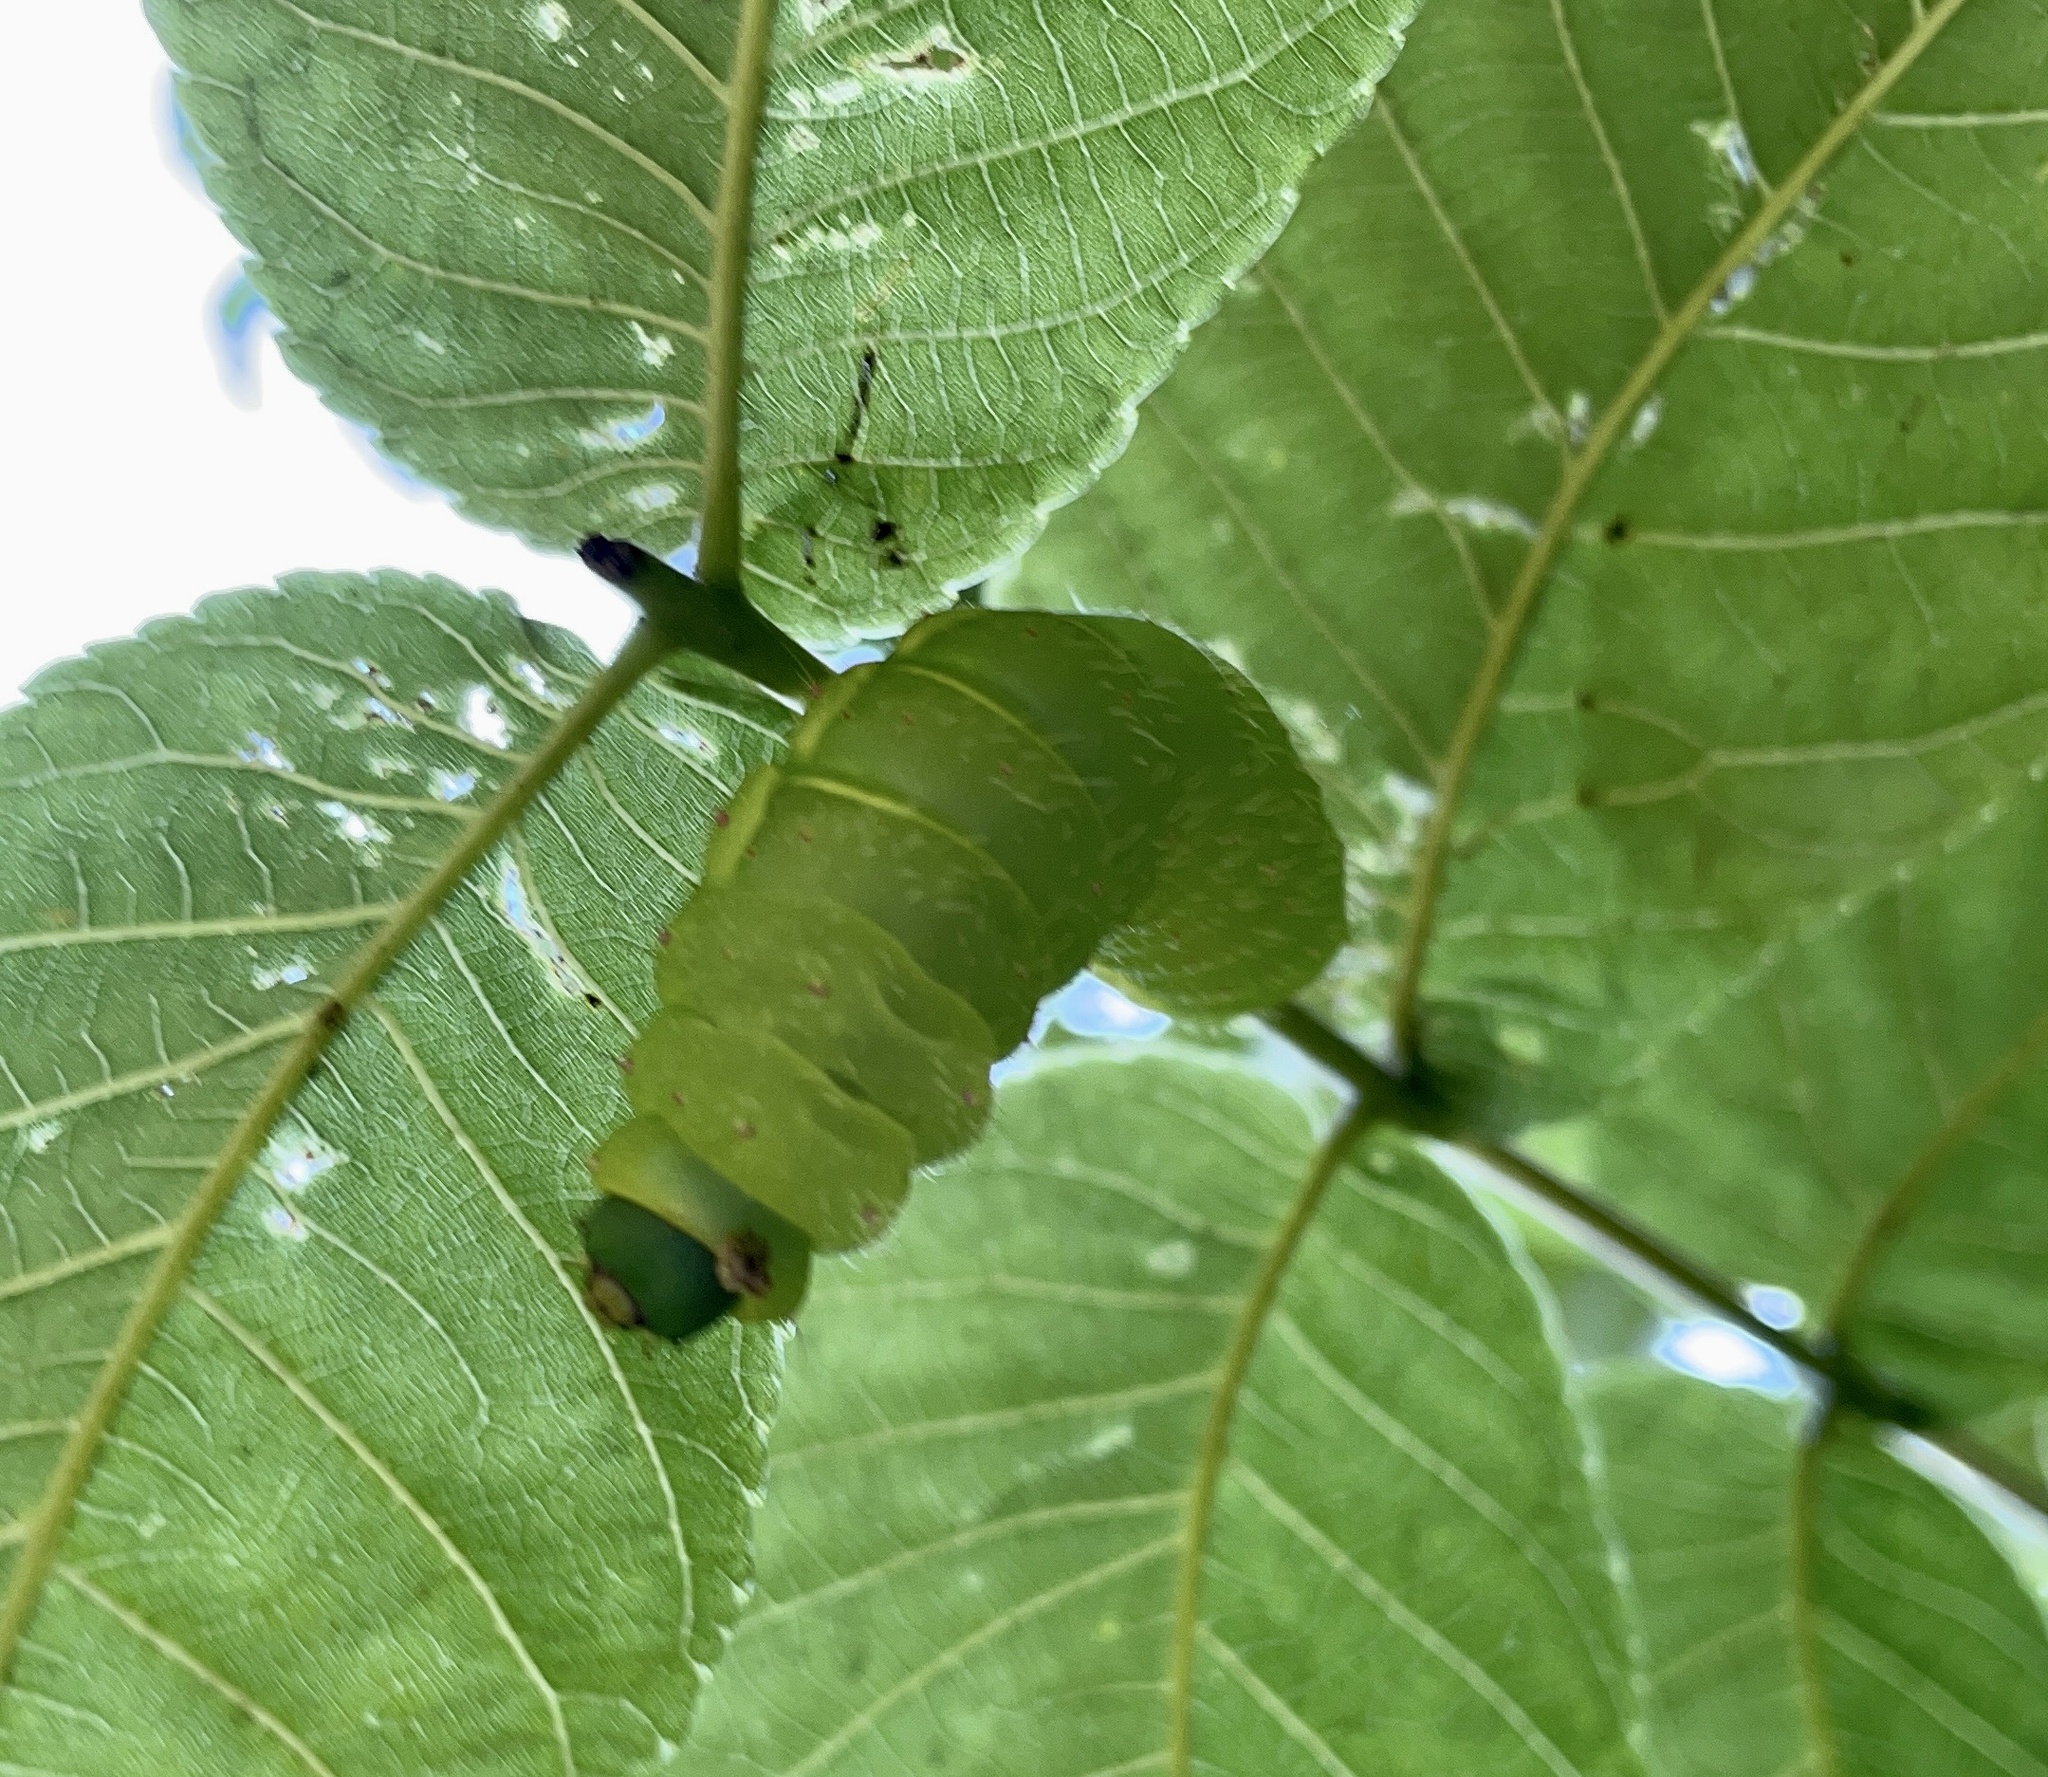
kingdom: Animalia
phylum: Arthropoda
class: Insecta
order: Lepidoptera
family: Saturniidae
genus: Actias
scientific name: Actias luna
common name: Luna moth
